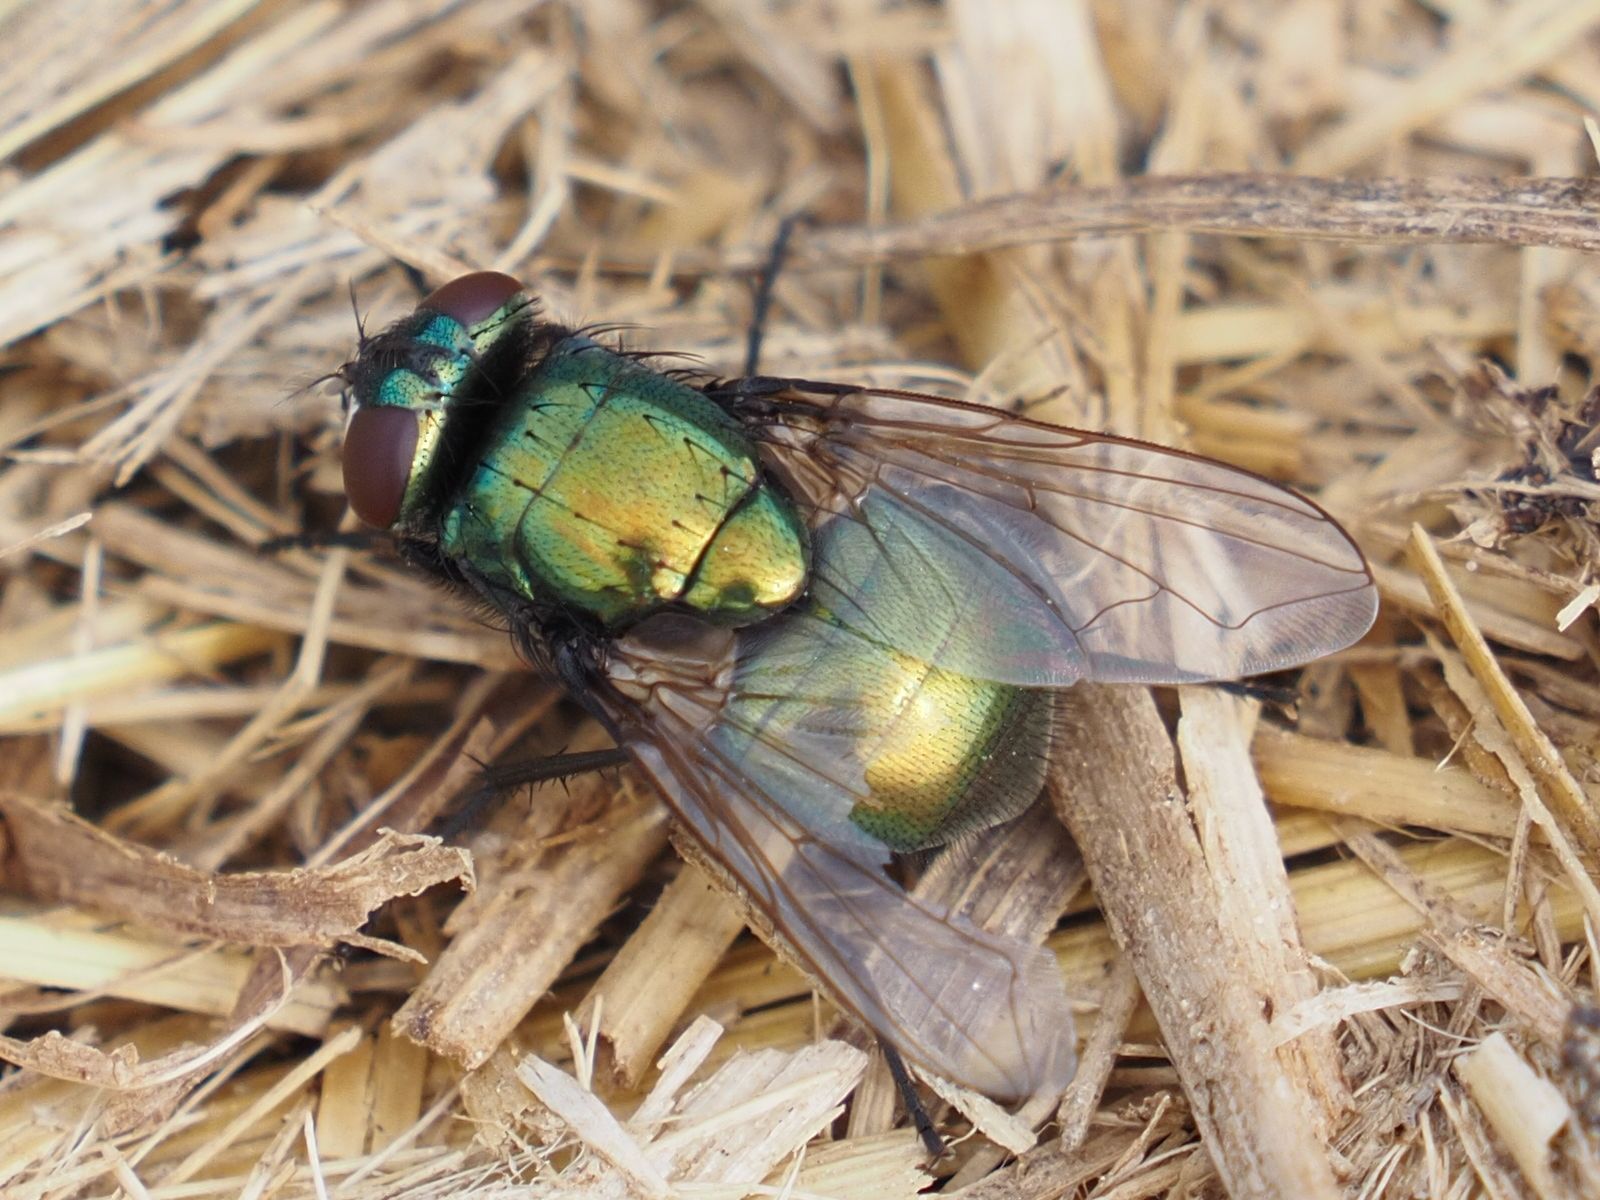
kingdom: Animalia
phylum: Arthropoda
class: Insecta
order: Diptera
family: Muscidae
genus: Neomyia
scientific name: Neomyia cornicina
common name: House fly
